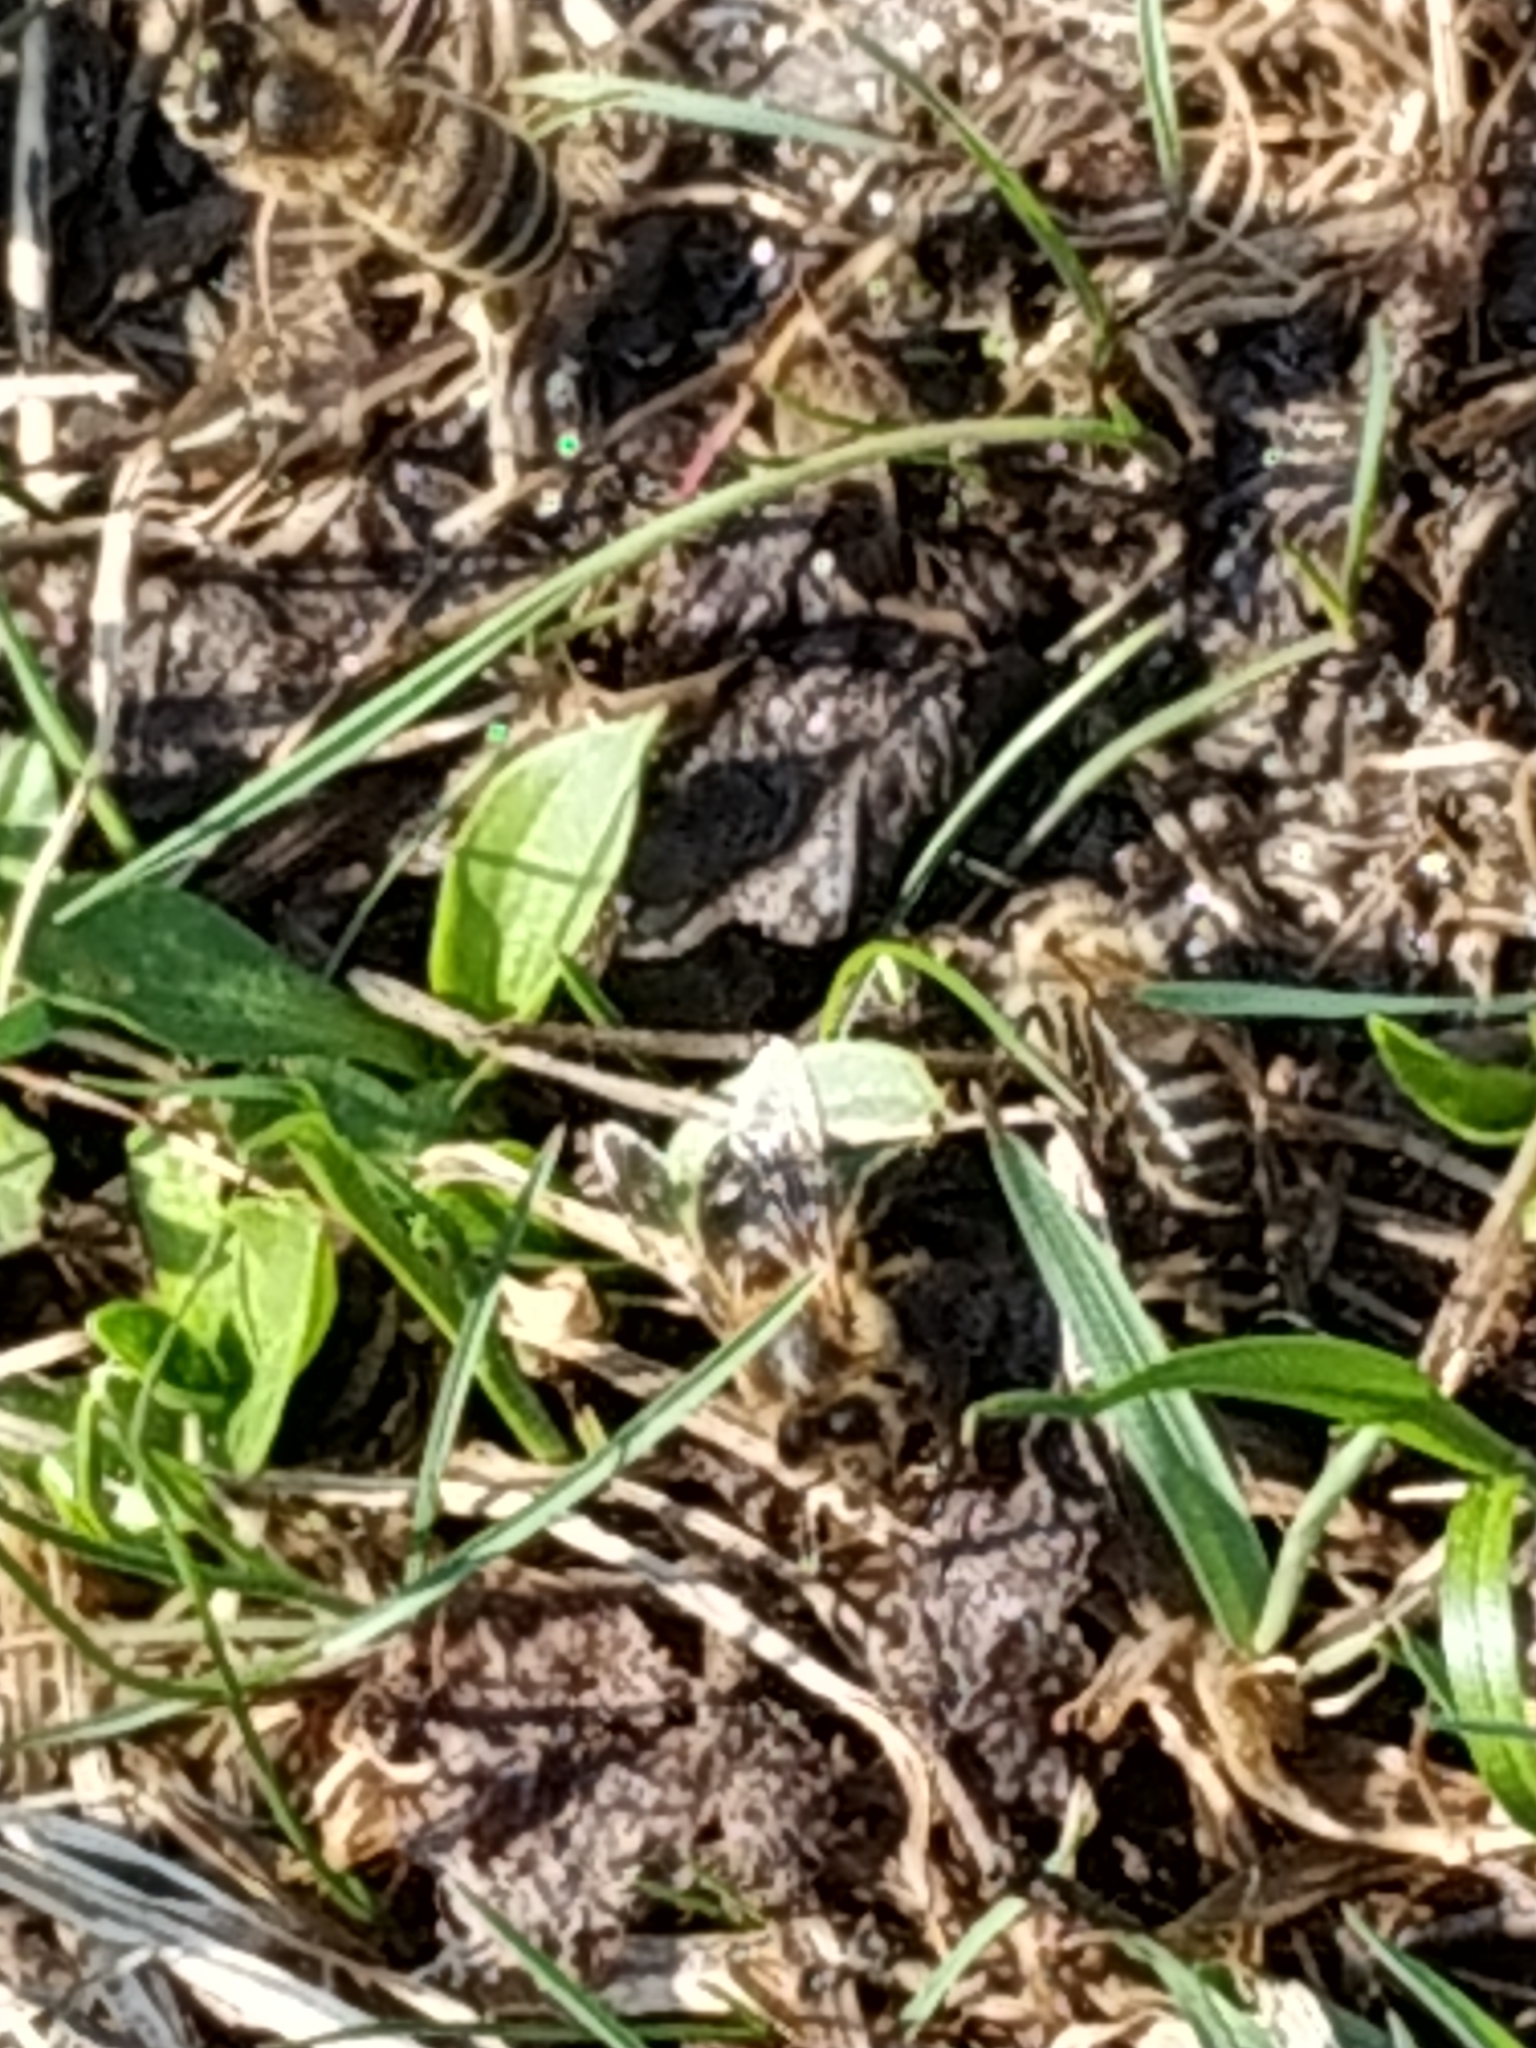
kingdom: Animalia
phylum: Arthropoda
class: Insecta
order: Hymenoptera
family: Apidae
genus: Apis
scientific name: Apis mellifera
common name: Honey bee
